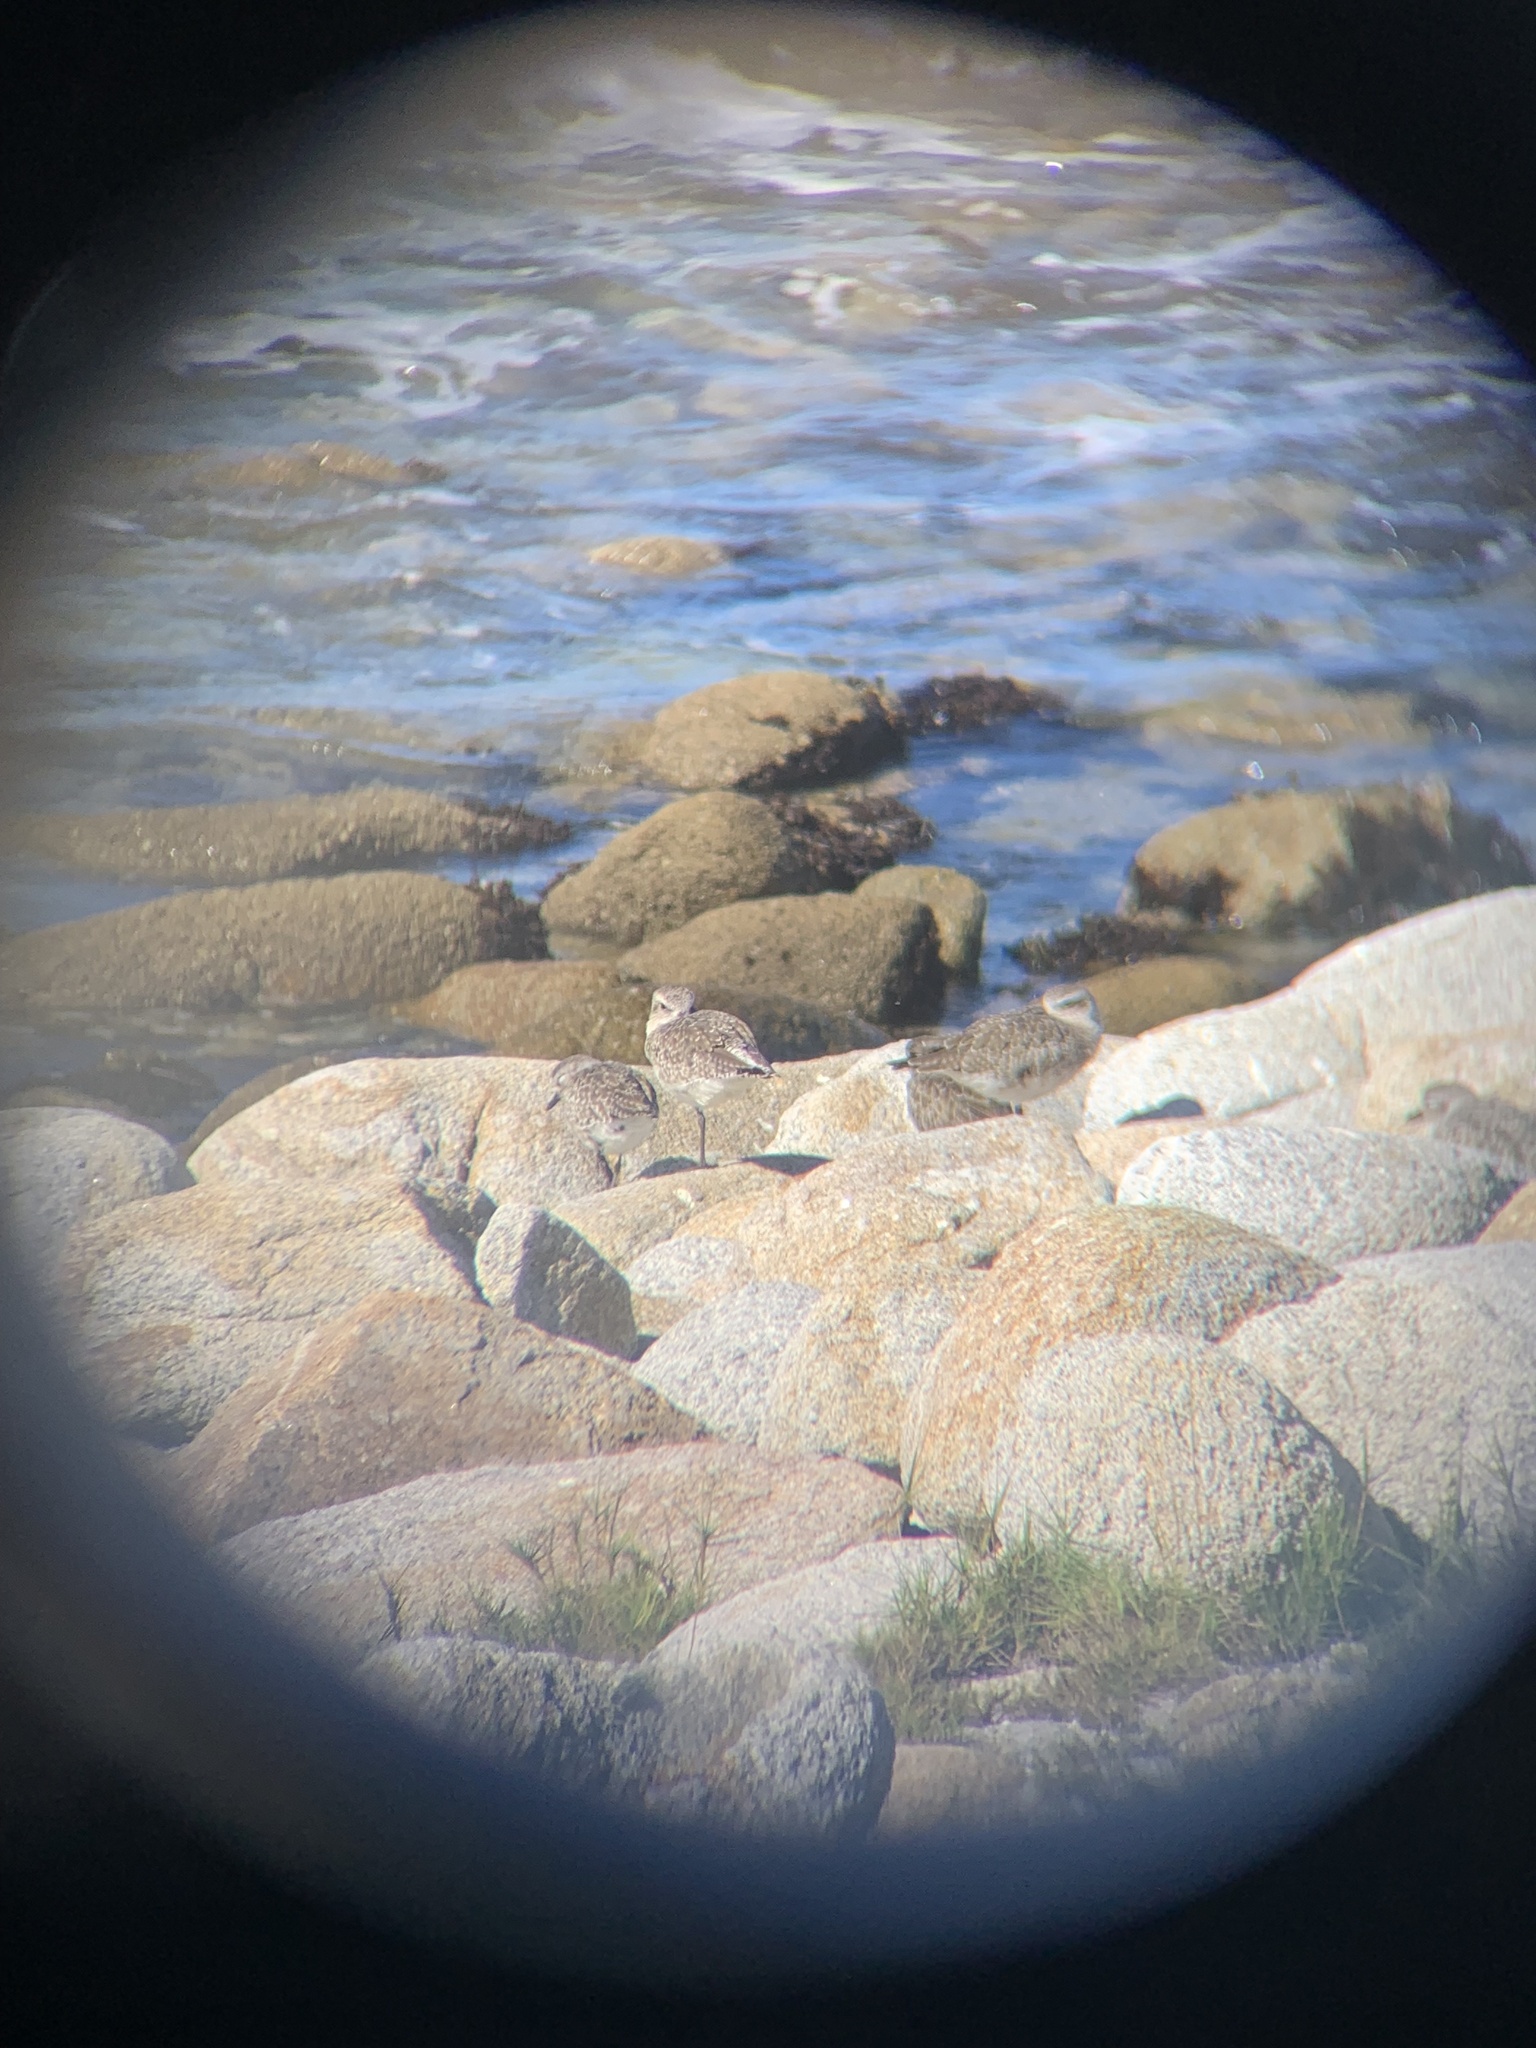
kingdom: Animalia
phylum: Chordata
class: Aves
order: Charadriiformes
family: Charadriidae
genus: Pluvialis
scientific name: Pluvialis squatarola
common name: Grey plover
